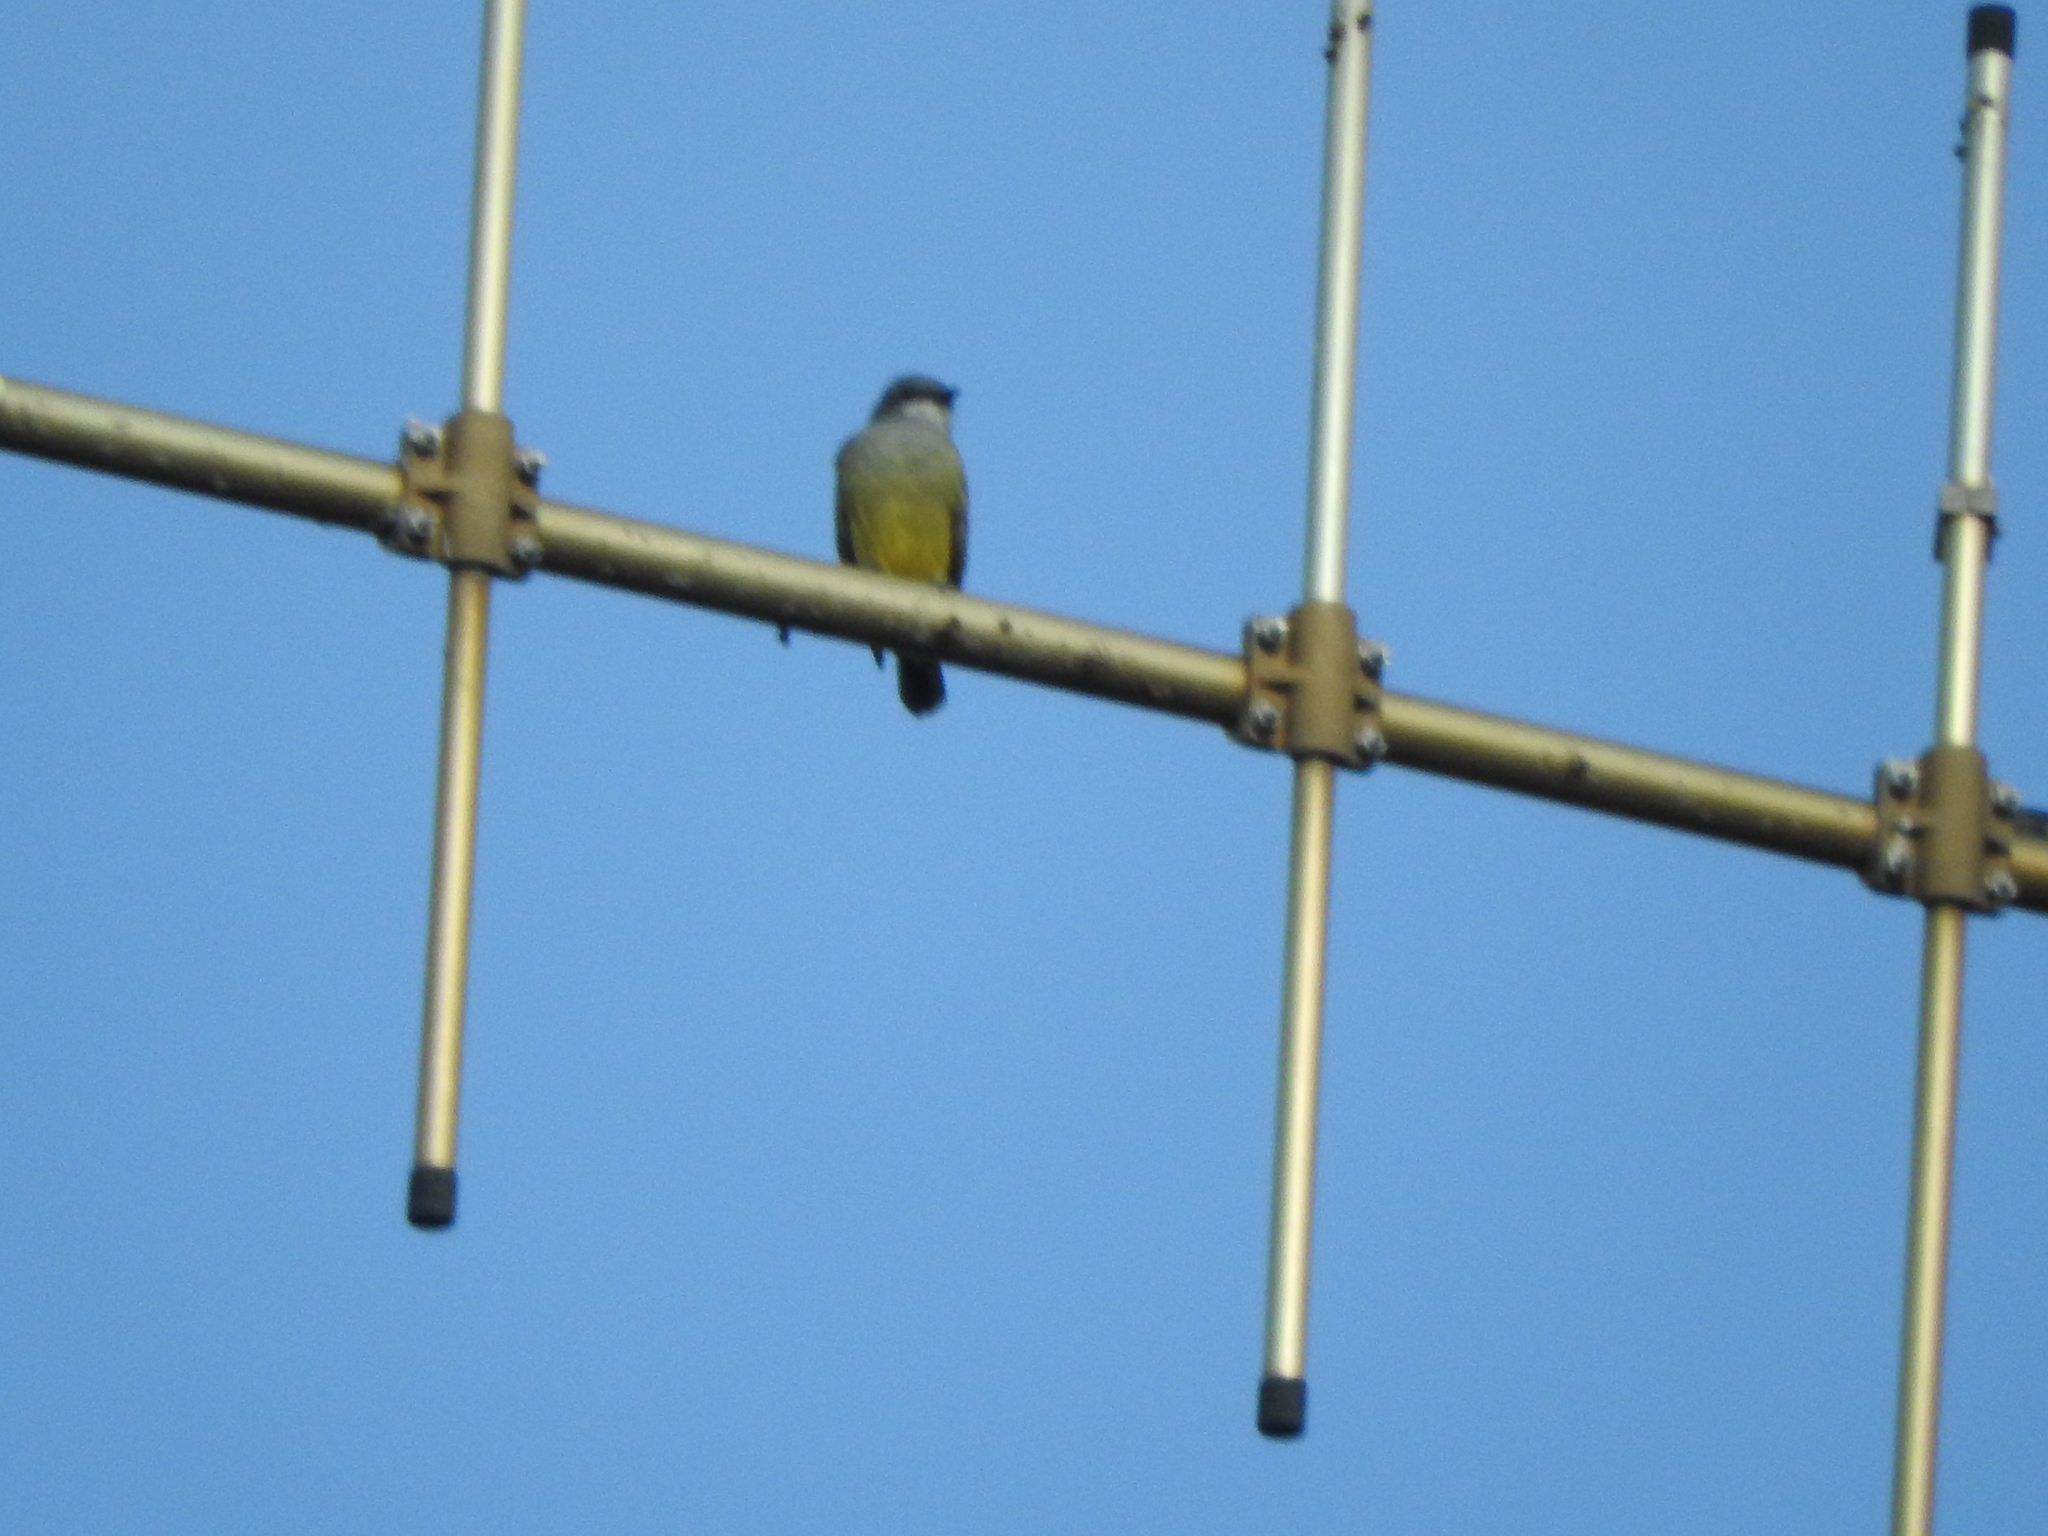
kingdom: Animalia
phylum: Chordata
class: Aves
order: Passeriformes
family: Tyrannidae
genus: Tyrannus
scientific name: Tyrannus vociferans
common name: Cassin's kingbird
